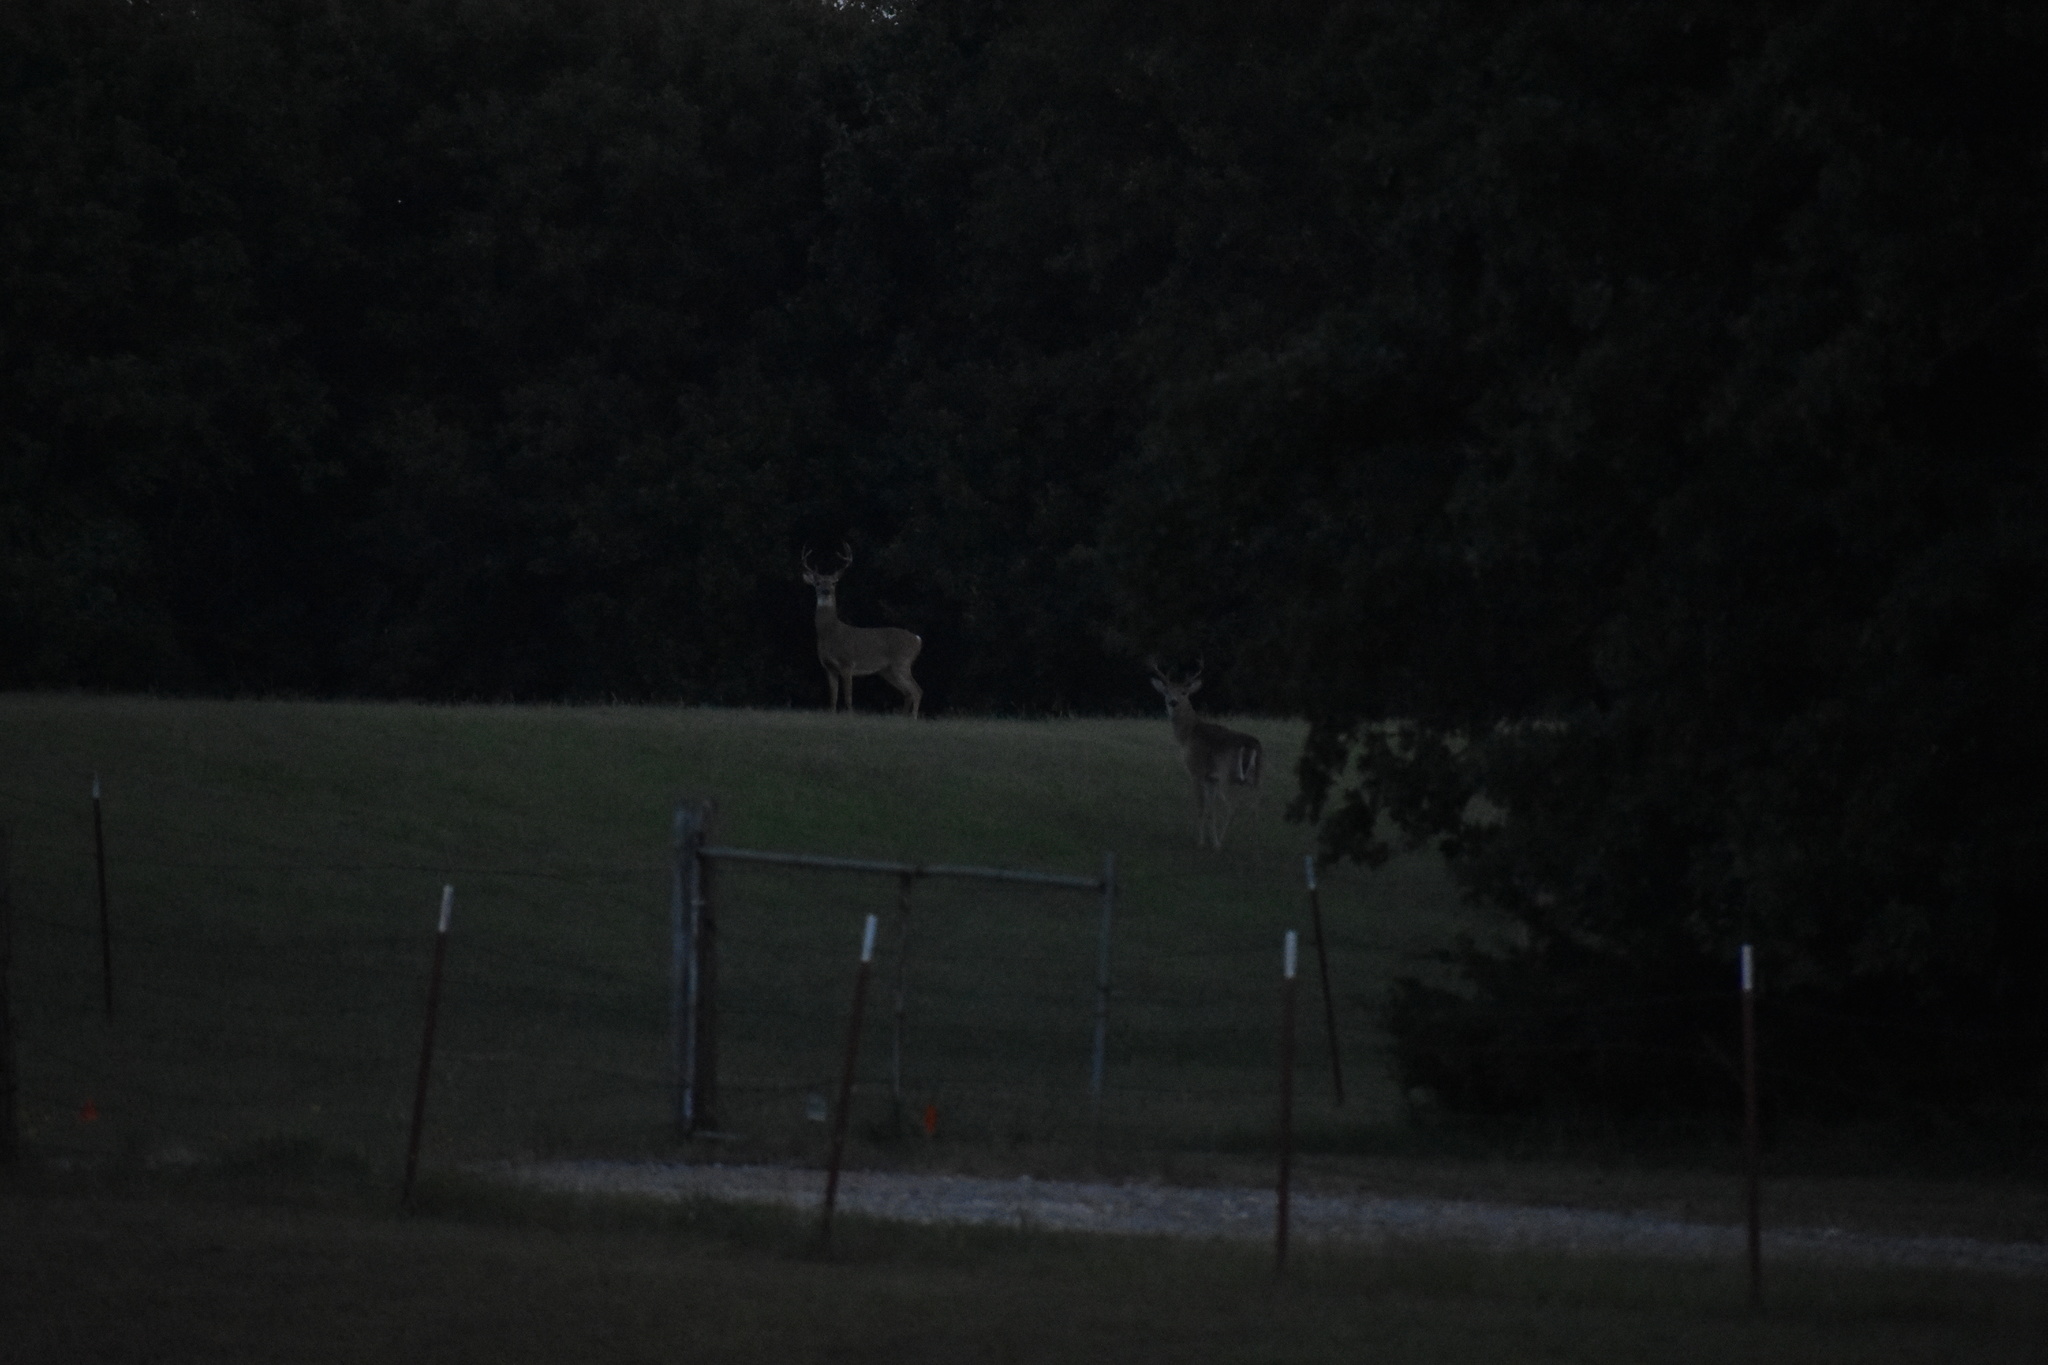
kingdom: Animalia
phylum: Chordata
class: Mammalia
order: Artiodactyla
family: Cervidae
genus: Odocoileus
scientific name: Odocoileus virginianus
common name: White-tailed deer
